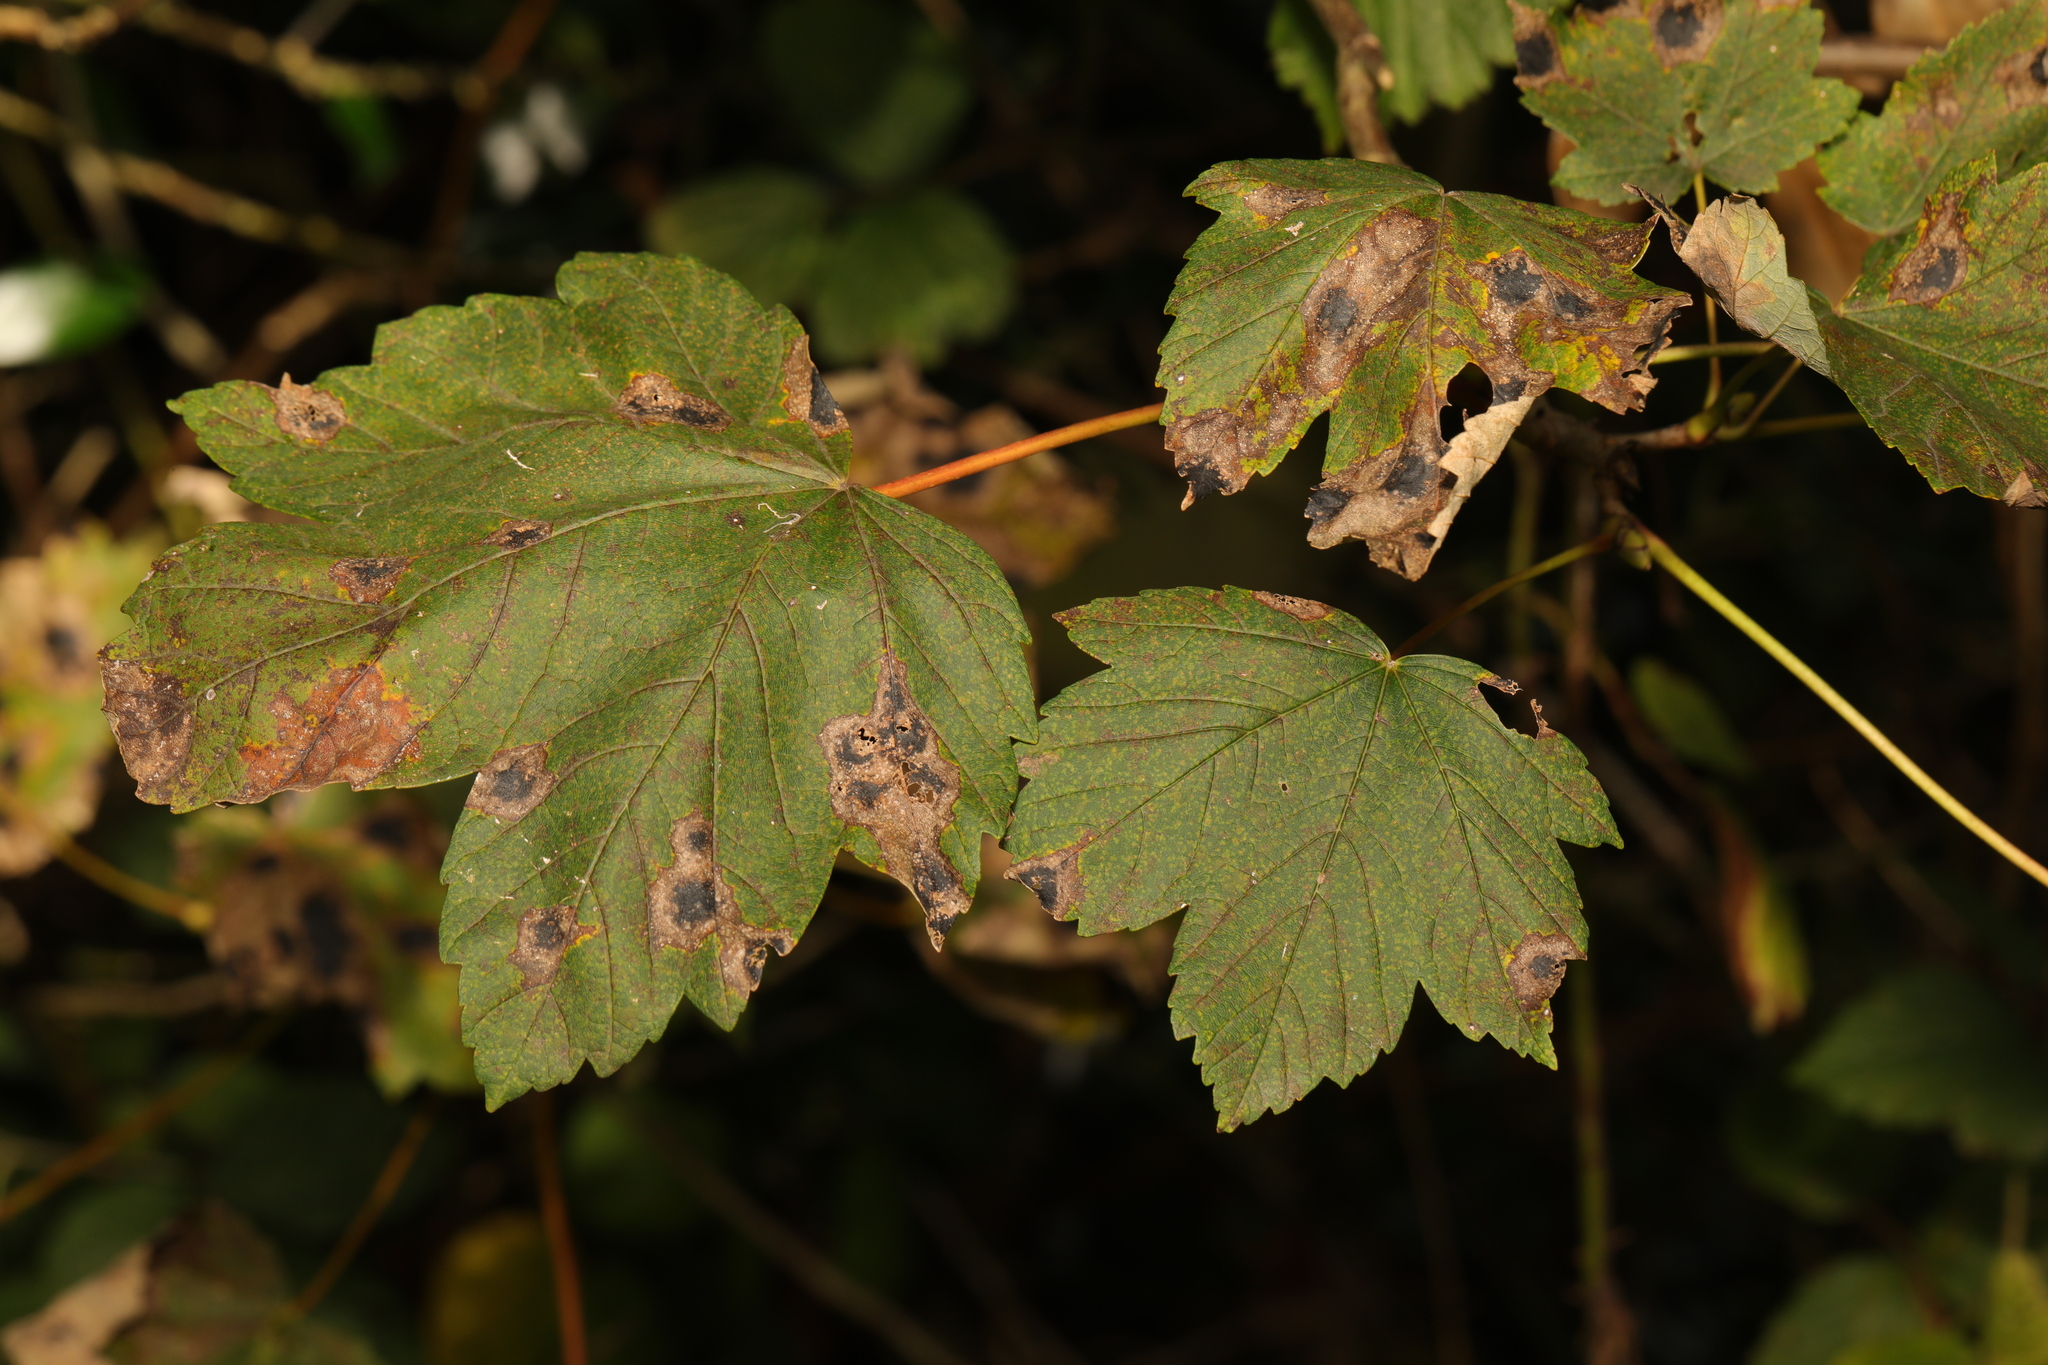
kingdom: Plantae
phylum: Tracheophyta
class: Magnoliopsida
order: Sapindales
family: Sapindaceae
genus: Acer
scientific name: Acer pseudoplatanus
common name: Sycamore
